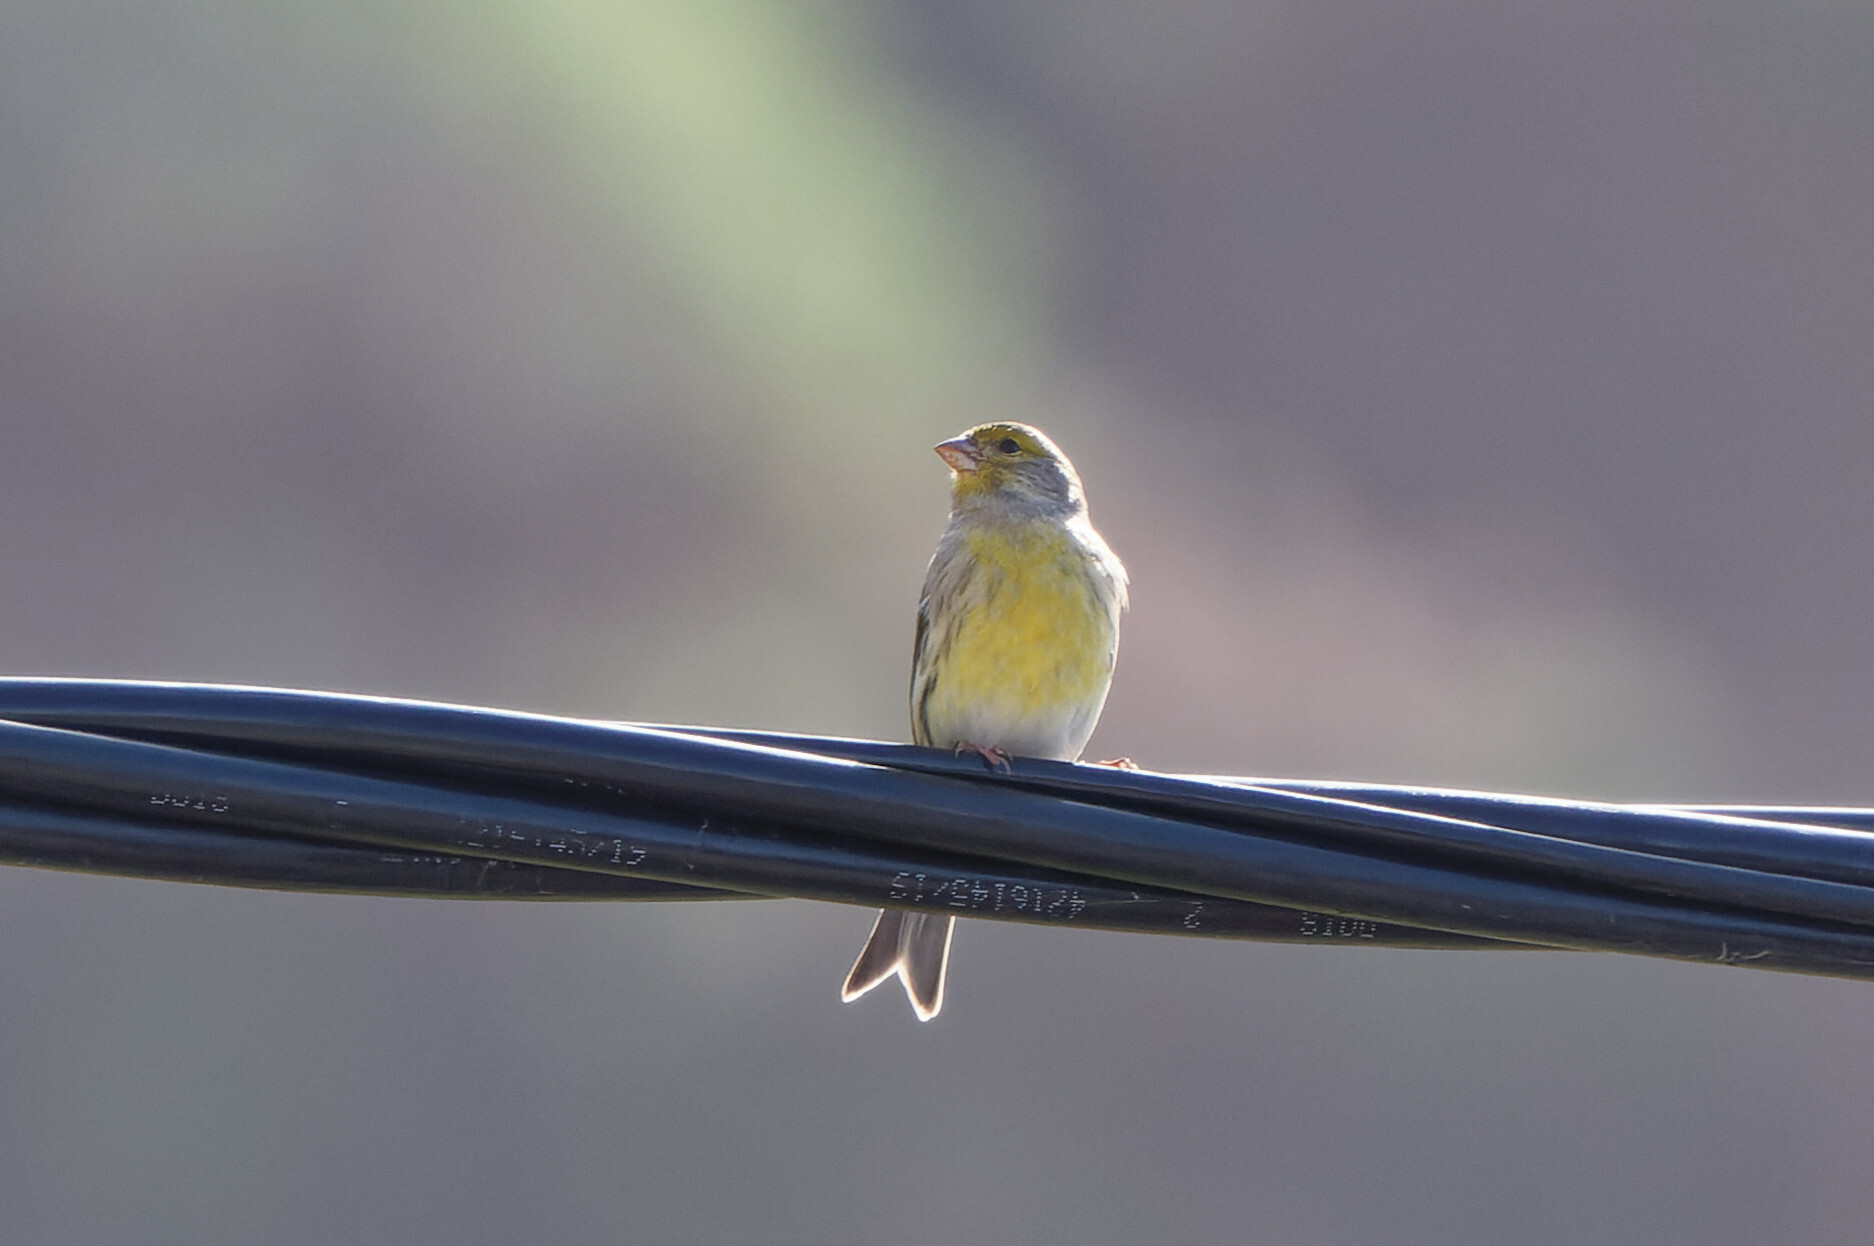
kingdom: Animalia
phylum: Chordata
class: Aves
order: Passeriformes
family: Fringillidae
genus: Serinus
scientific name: Serinus canaria
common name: Atlantic canary
